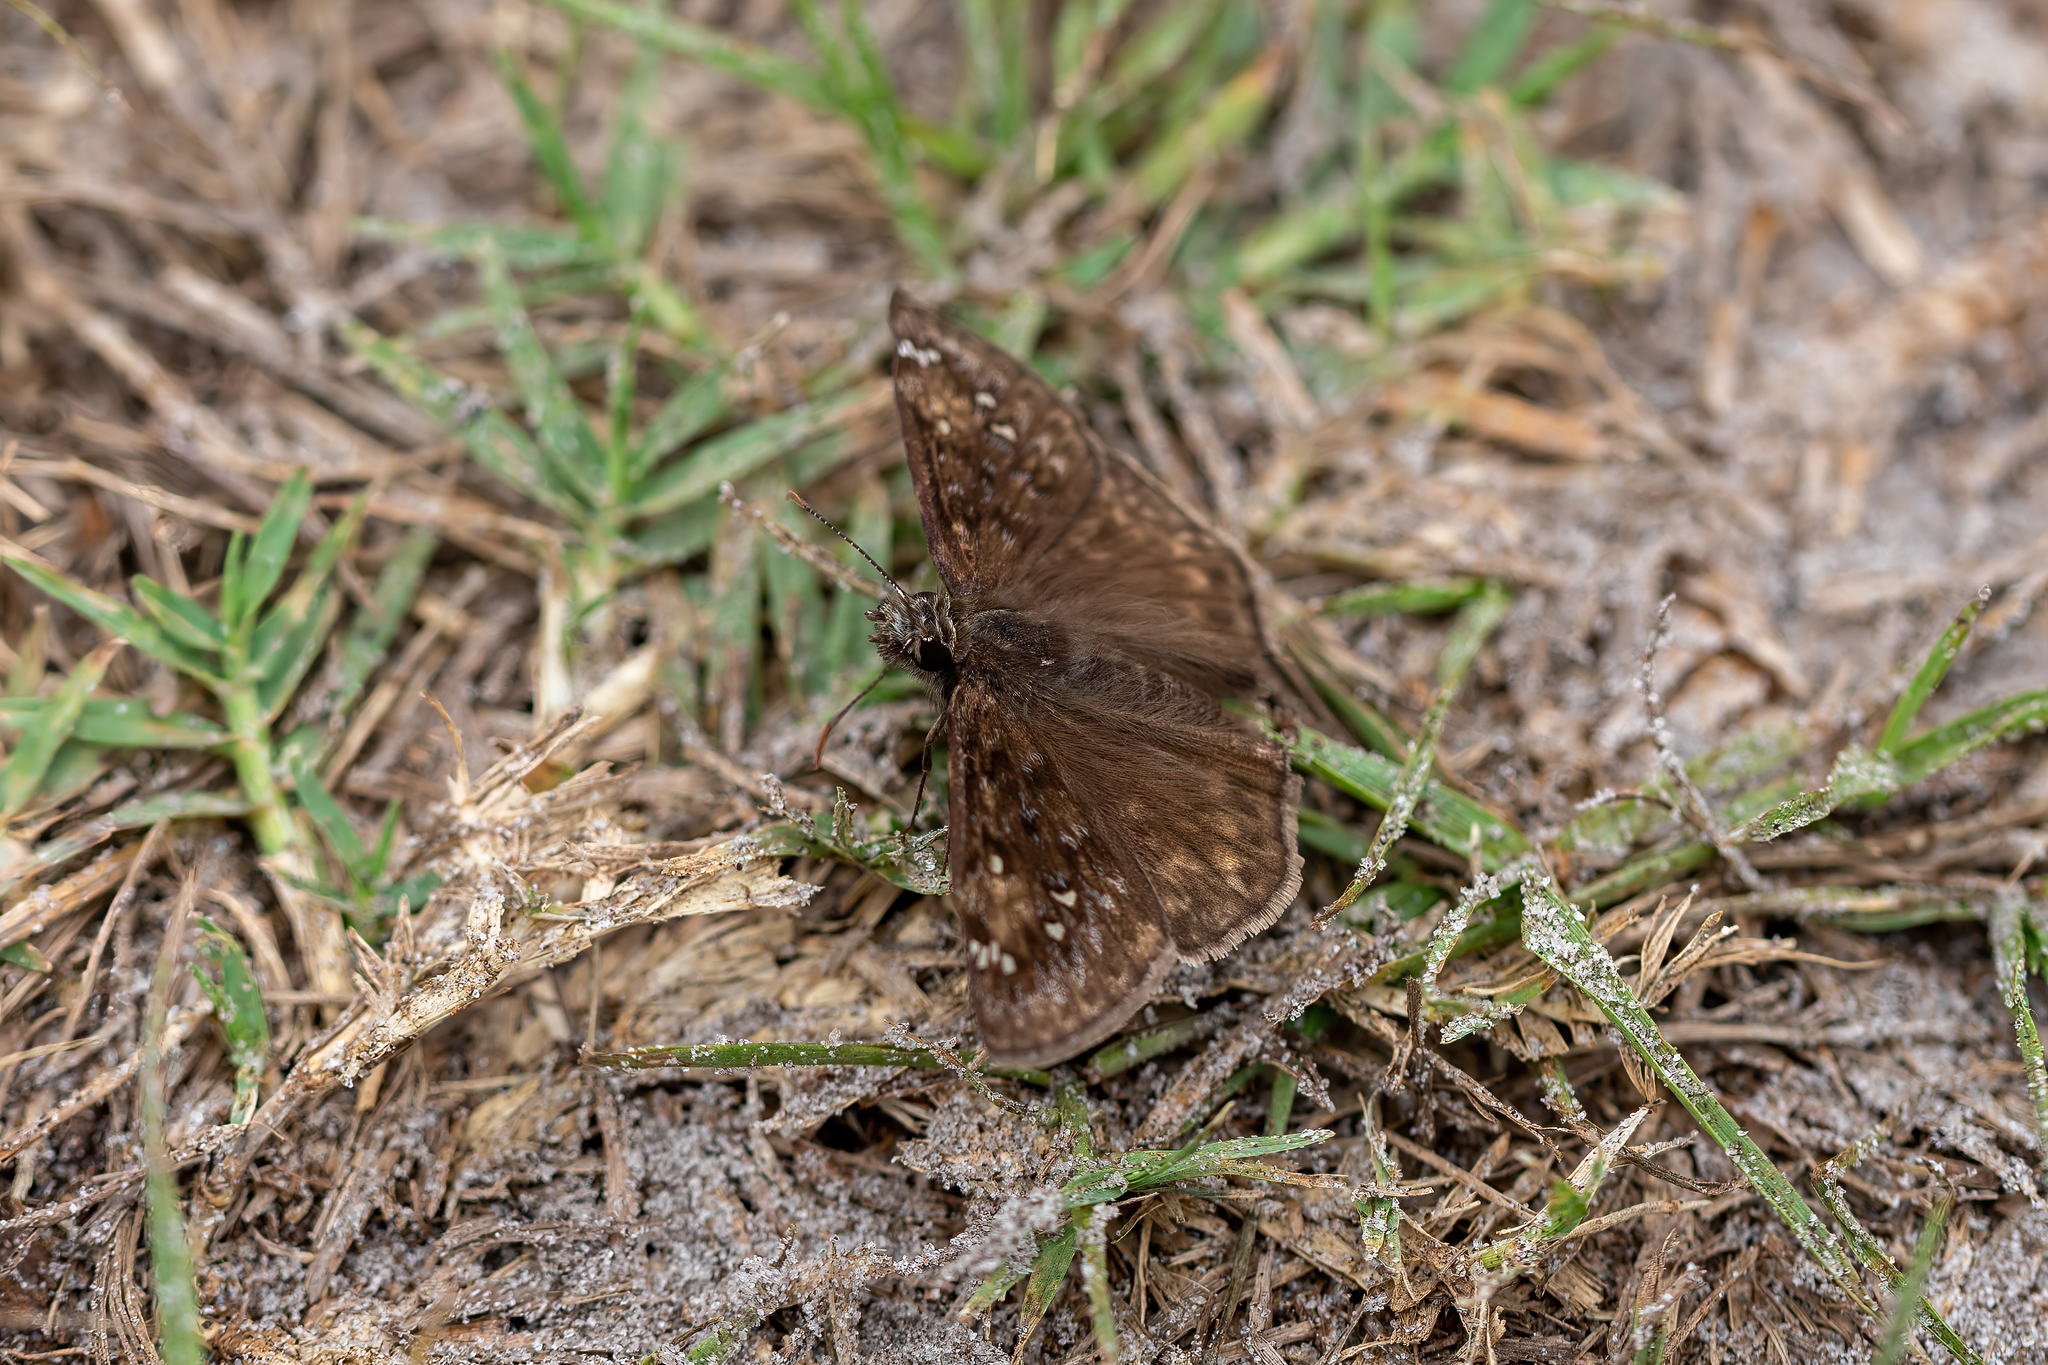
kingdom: Animalia
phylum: Arthropoda
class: Insecta
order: Lepidoptera
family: Hesperiidae
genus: Erynnis
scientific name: Erynnis horatius
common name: Horace's duskywing
